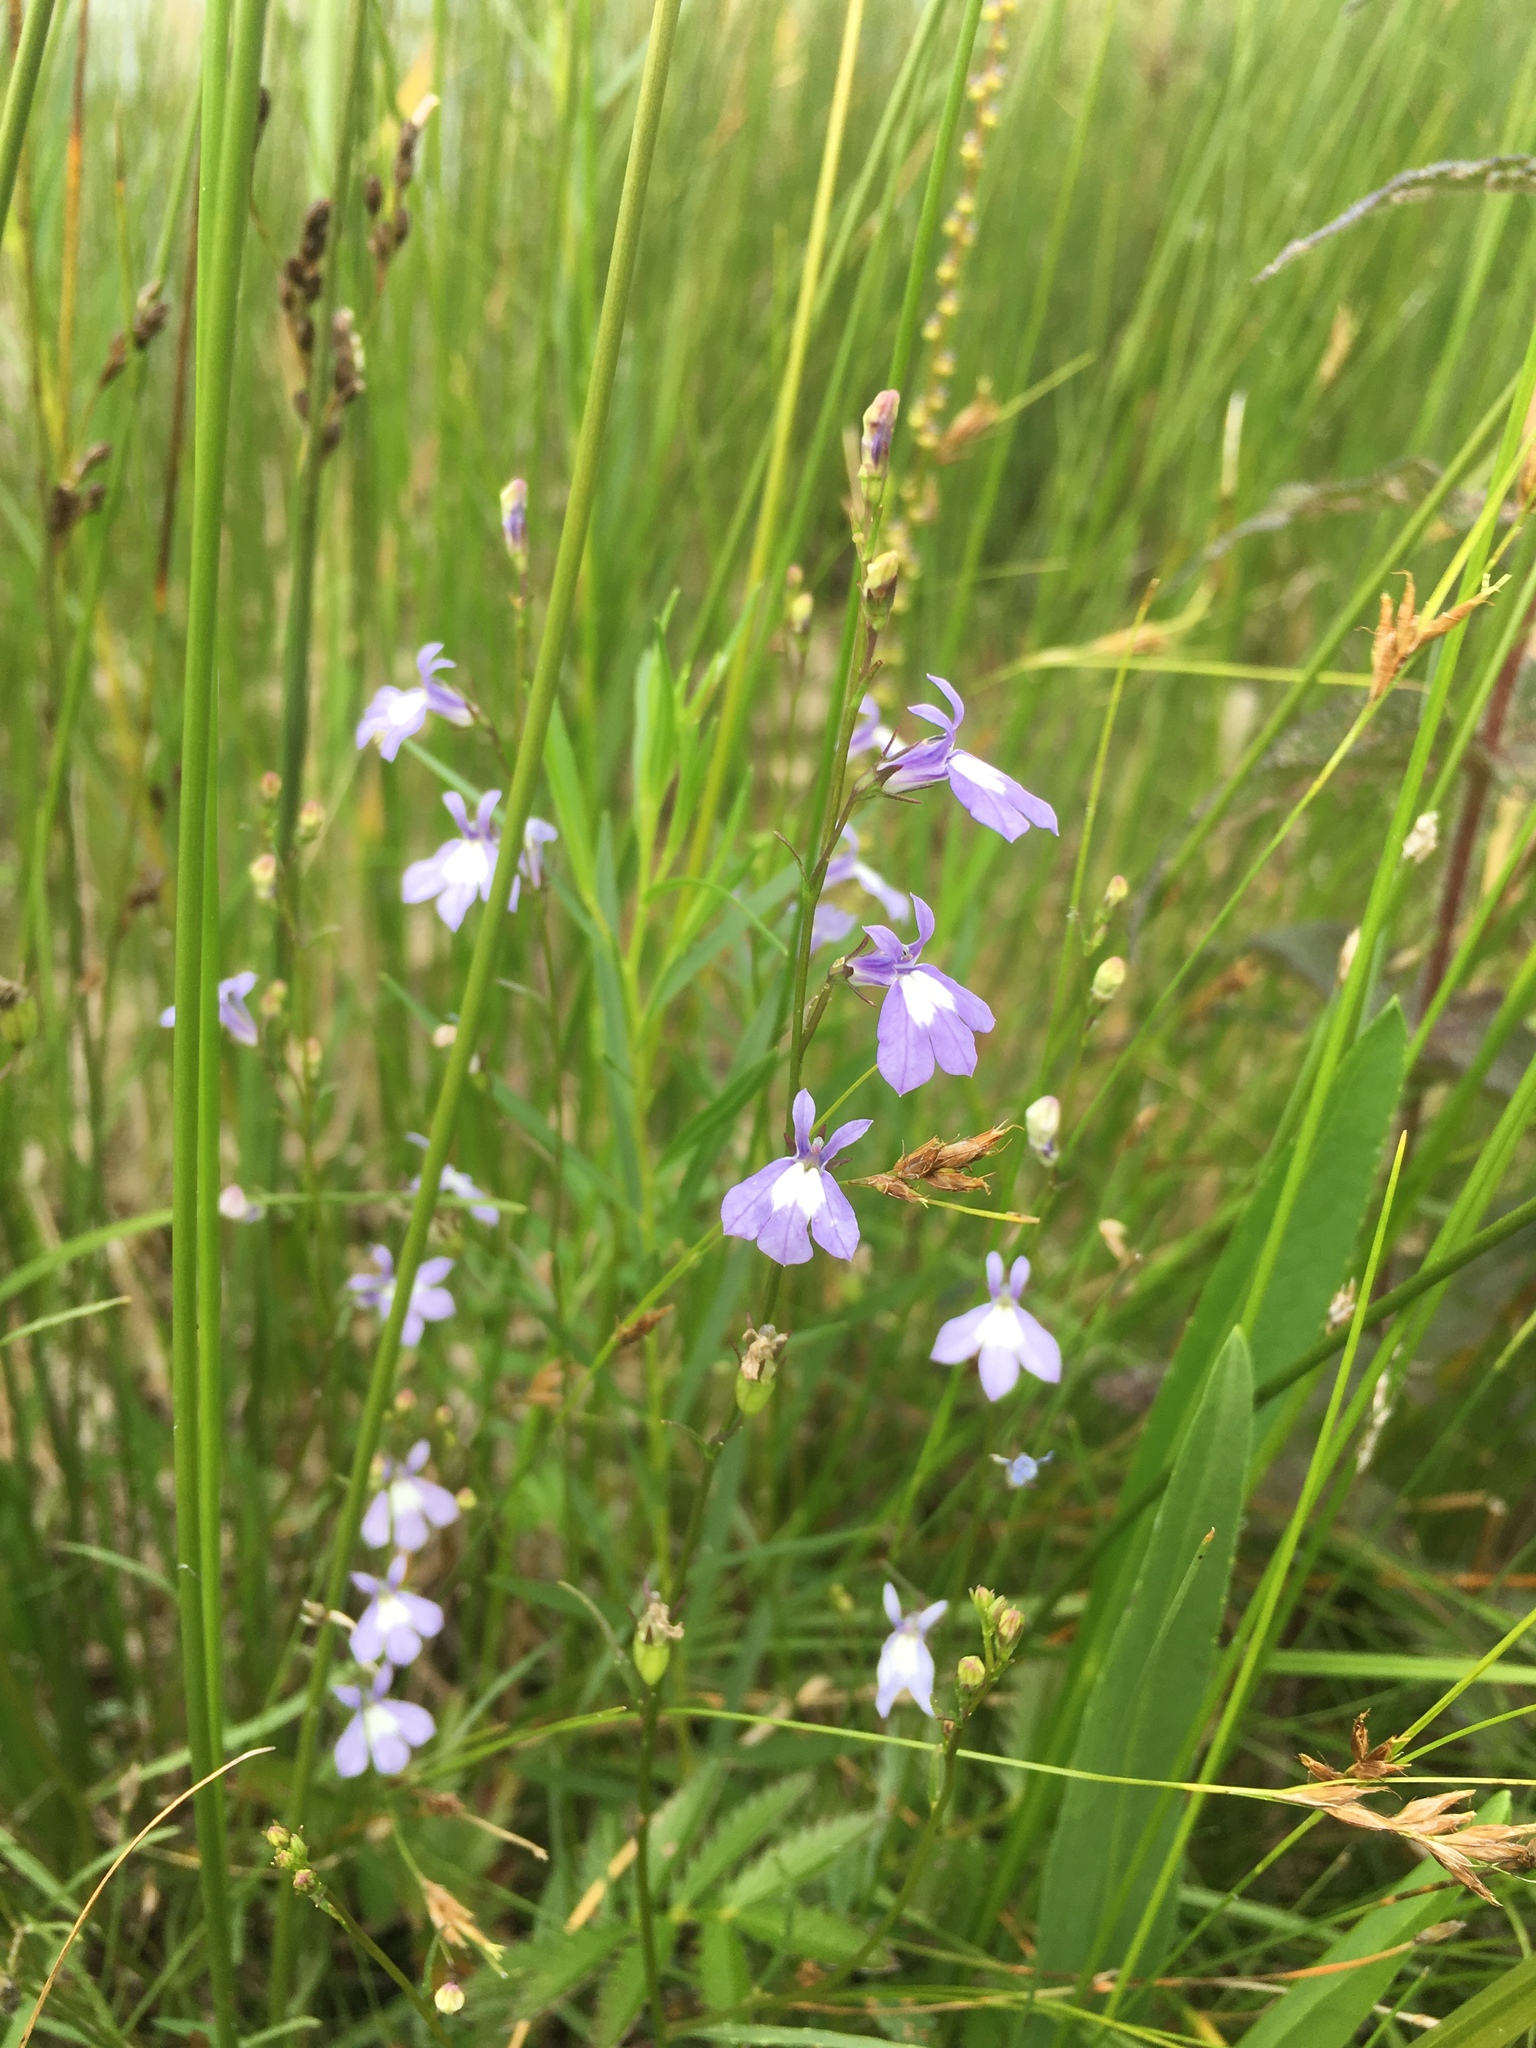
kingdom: Plantae
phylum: Tracheophyta
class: Magnoliopsida
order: Asterales
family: Campanulaceae
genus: Lobelia
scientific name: Lobelia kalmii
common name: Kalm's lobelia
